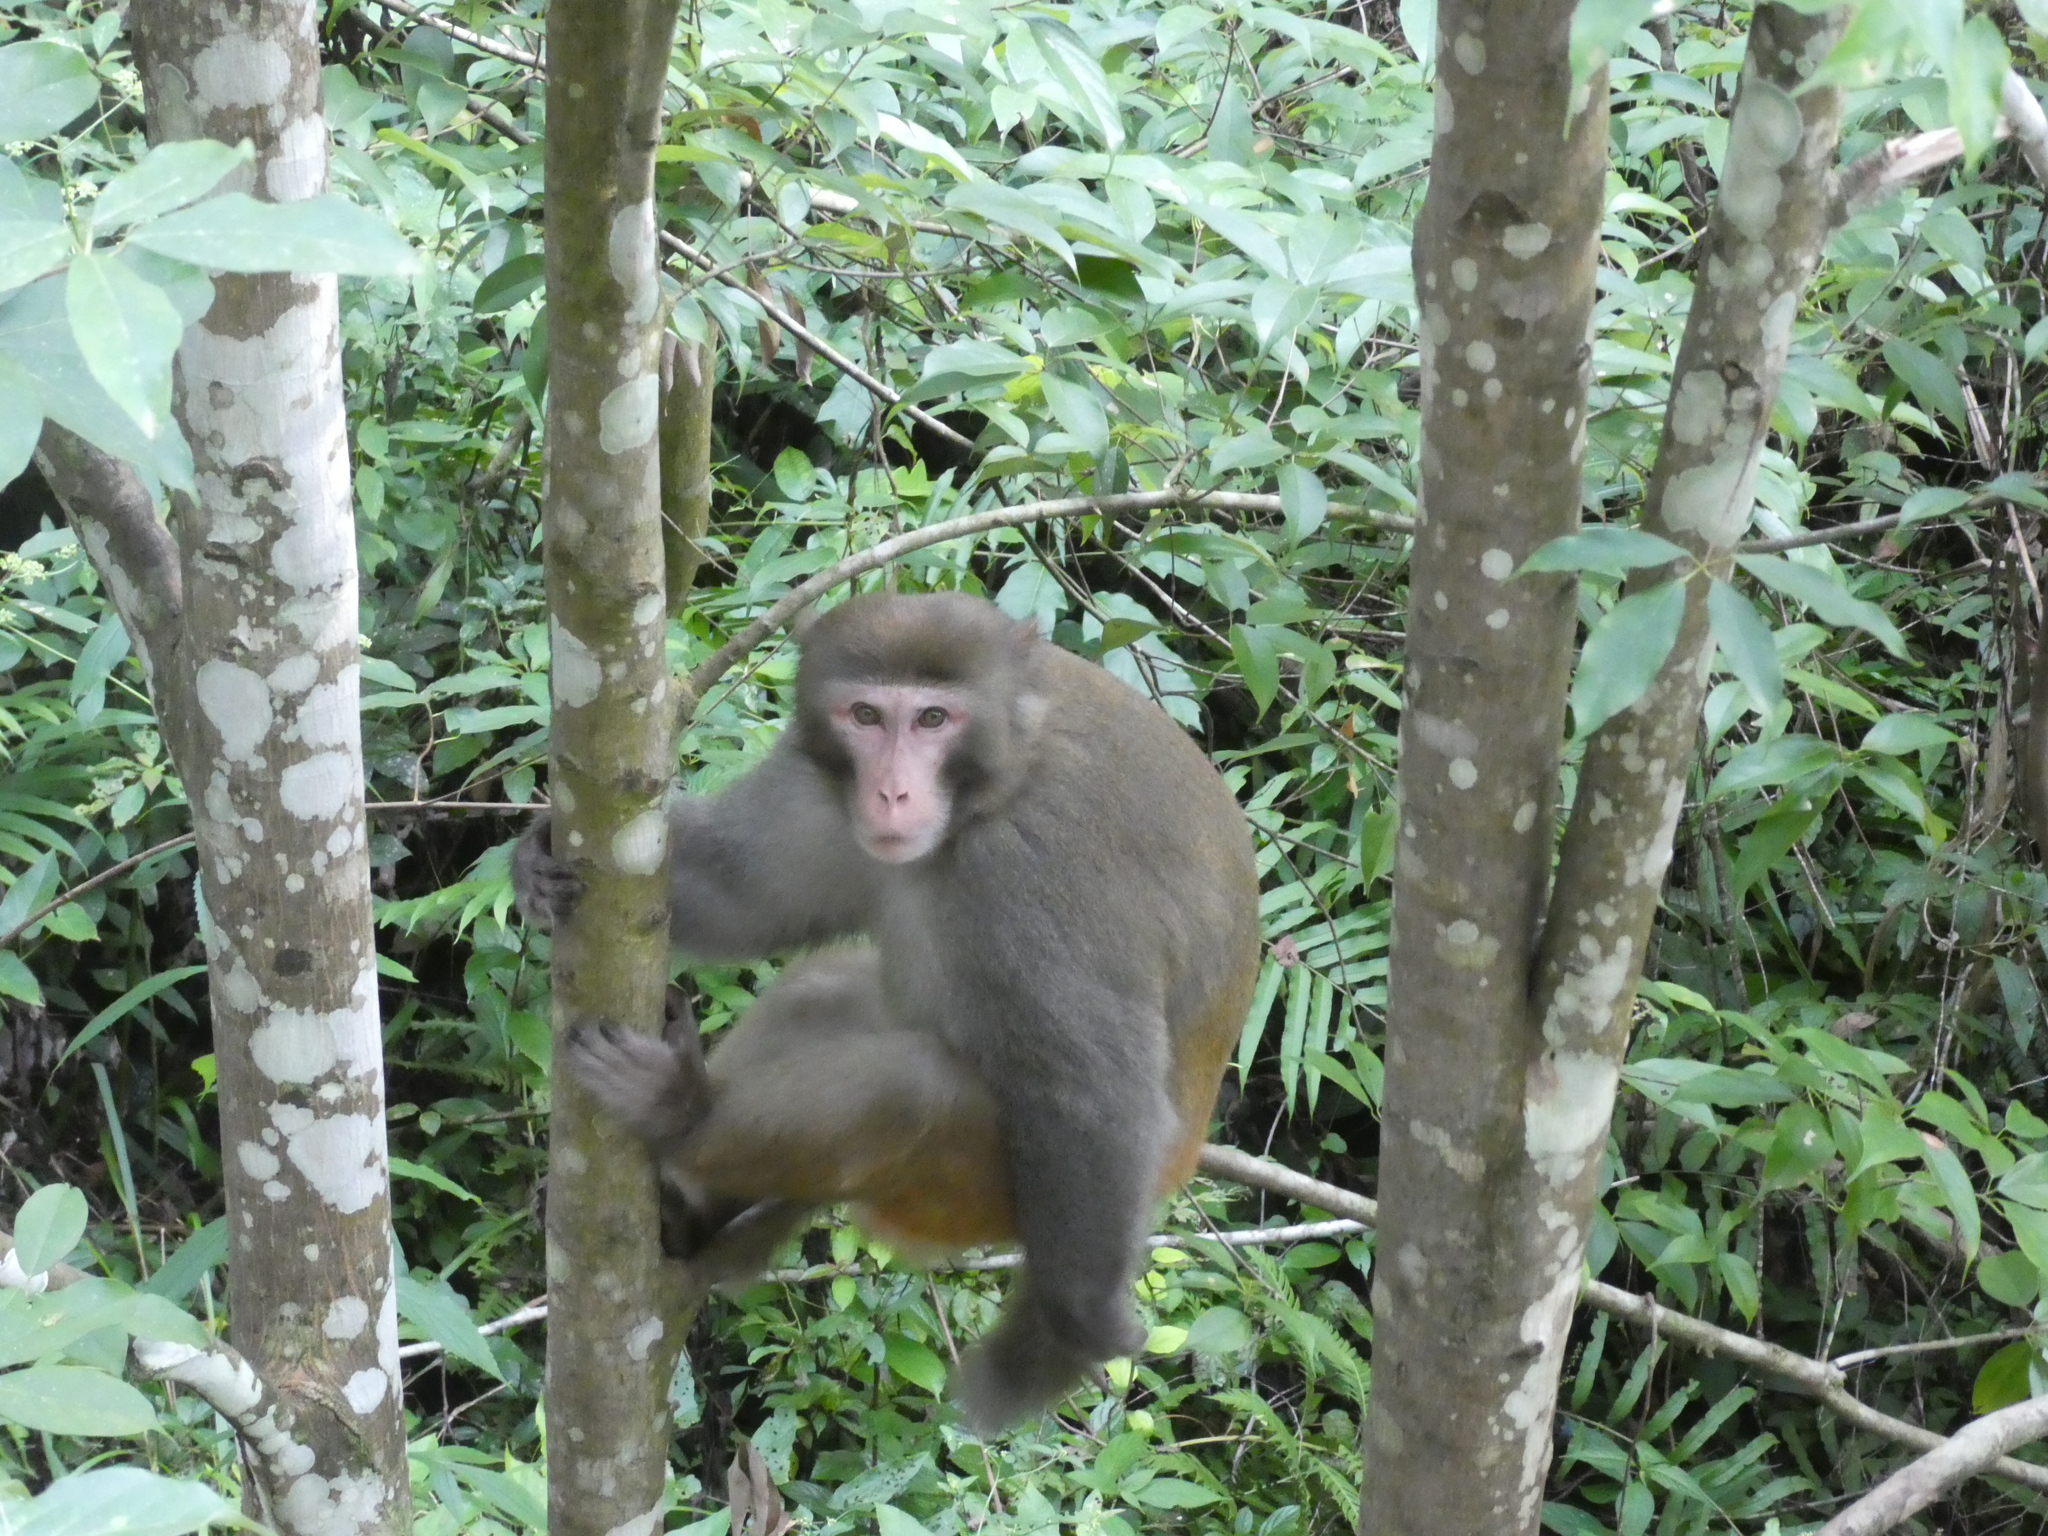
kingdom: Animalia
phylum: Chordata
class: Mammalia
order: Primates
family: Cercopithecidae
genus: Macaca
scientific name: Macaca mulatta
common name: Rhesus monkey
